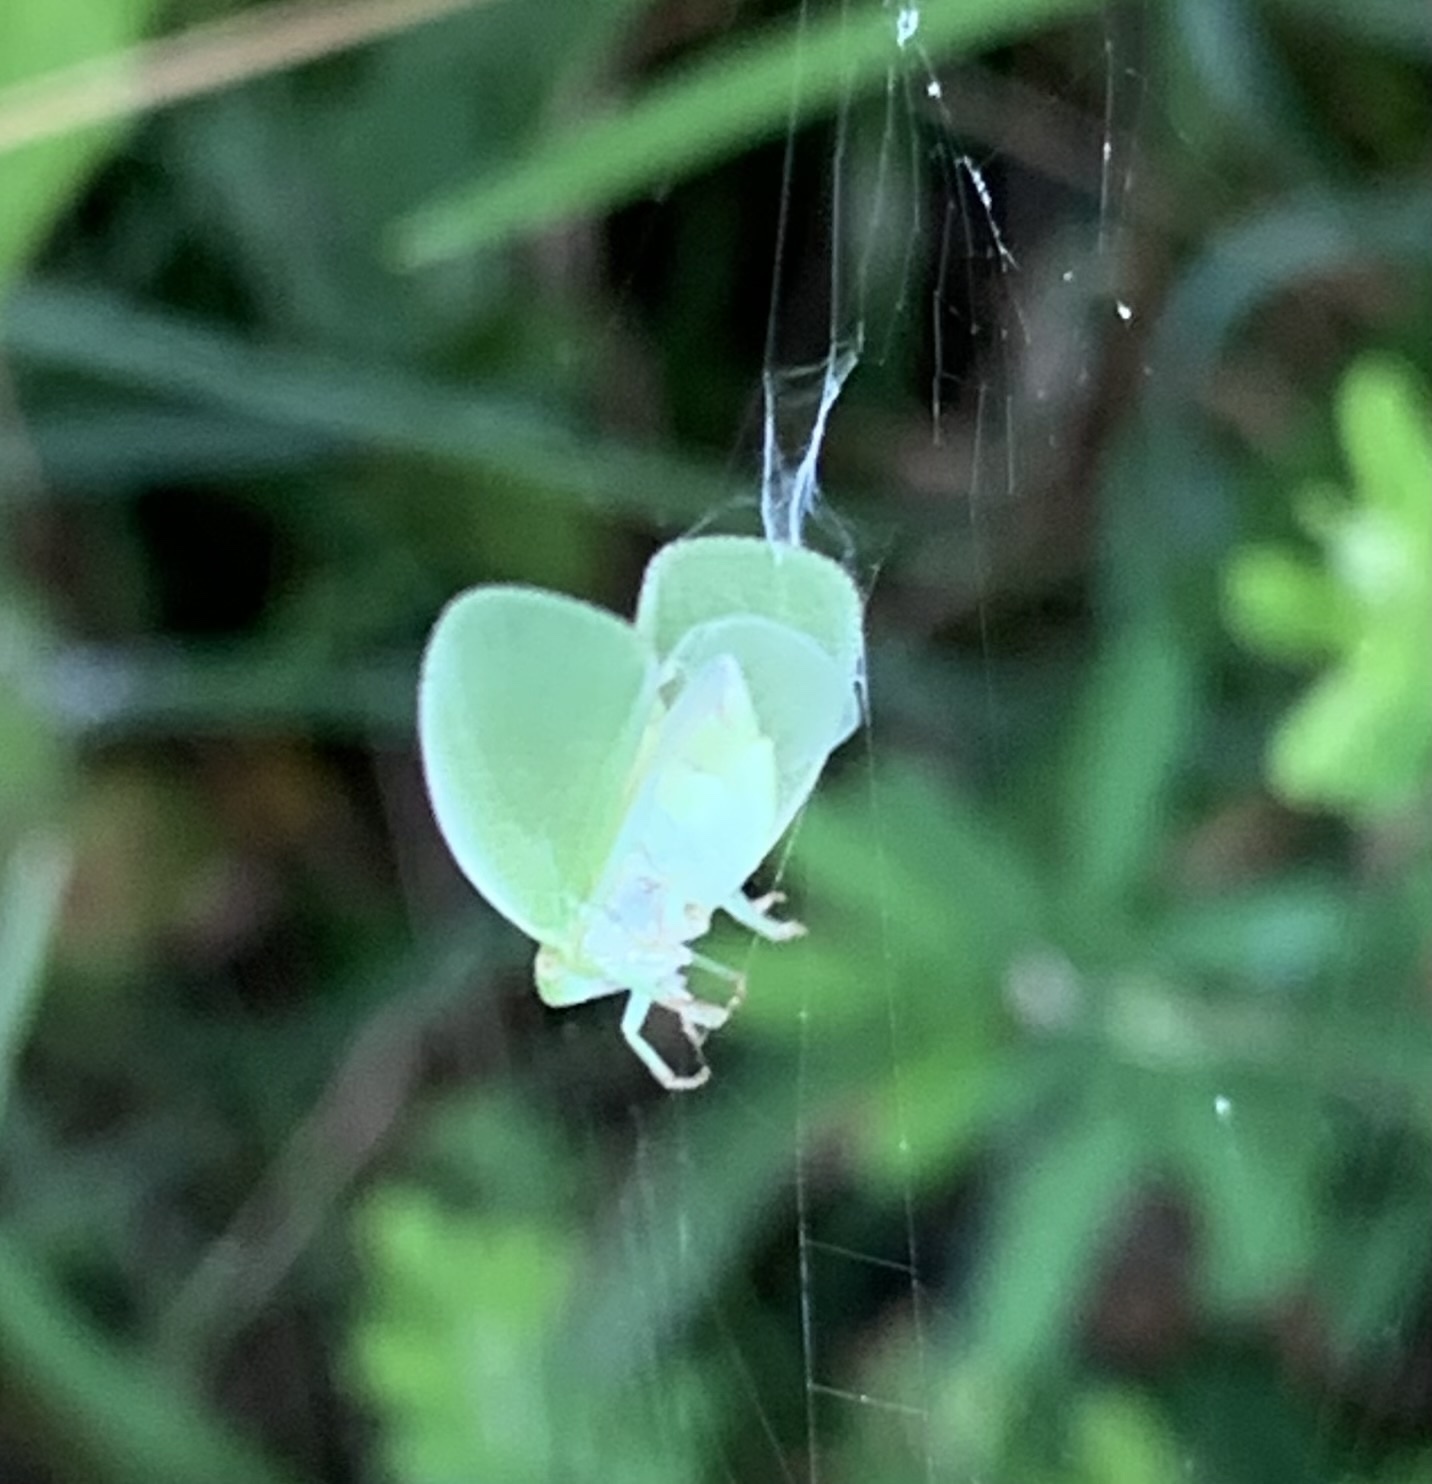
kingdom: Animalia
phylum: Arthropoda
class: Insecta
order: Hemiptera
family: Acanaloniidae
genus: Acanalonia
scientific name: Acanalonia conica
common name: Green cone-headed planthopper
